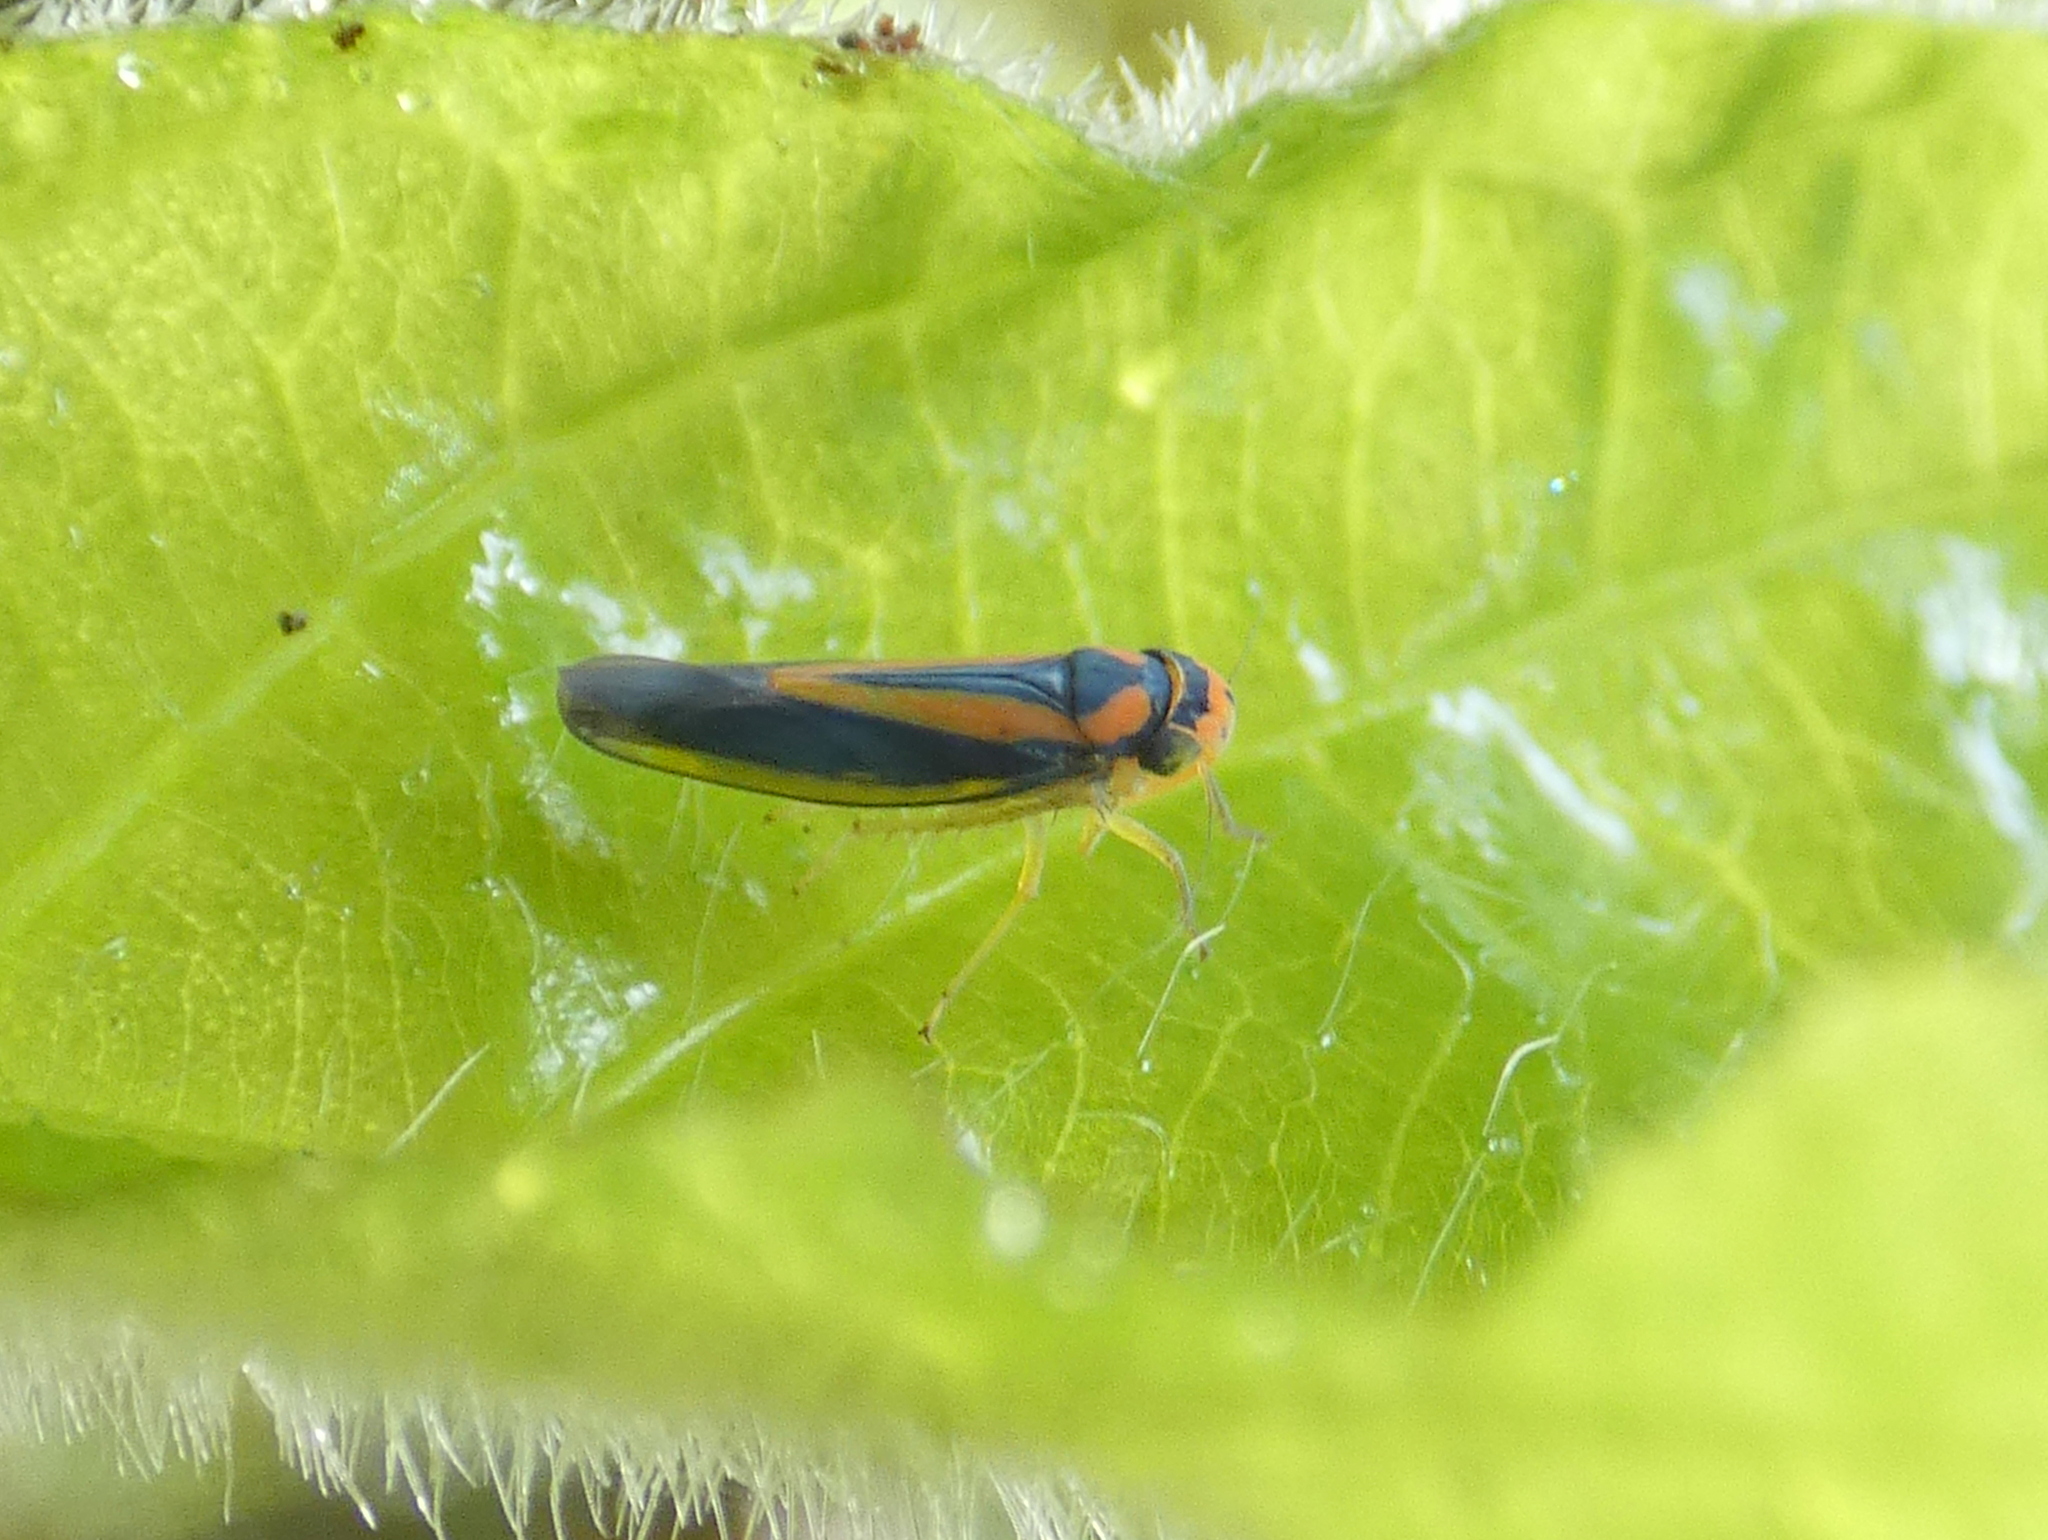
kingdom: Animalia
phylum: Arthropoda
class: Insecta
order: Hemiptera
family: Cicadellidae
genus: Ishidaella
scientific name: Ishidaella anemolua
